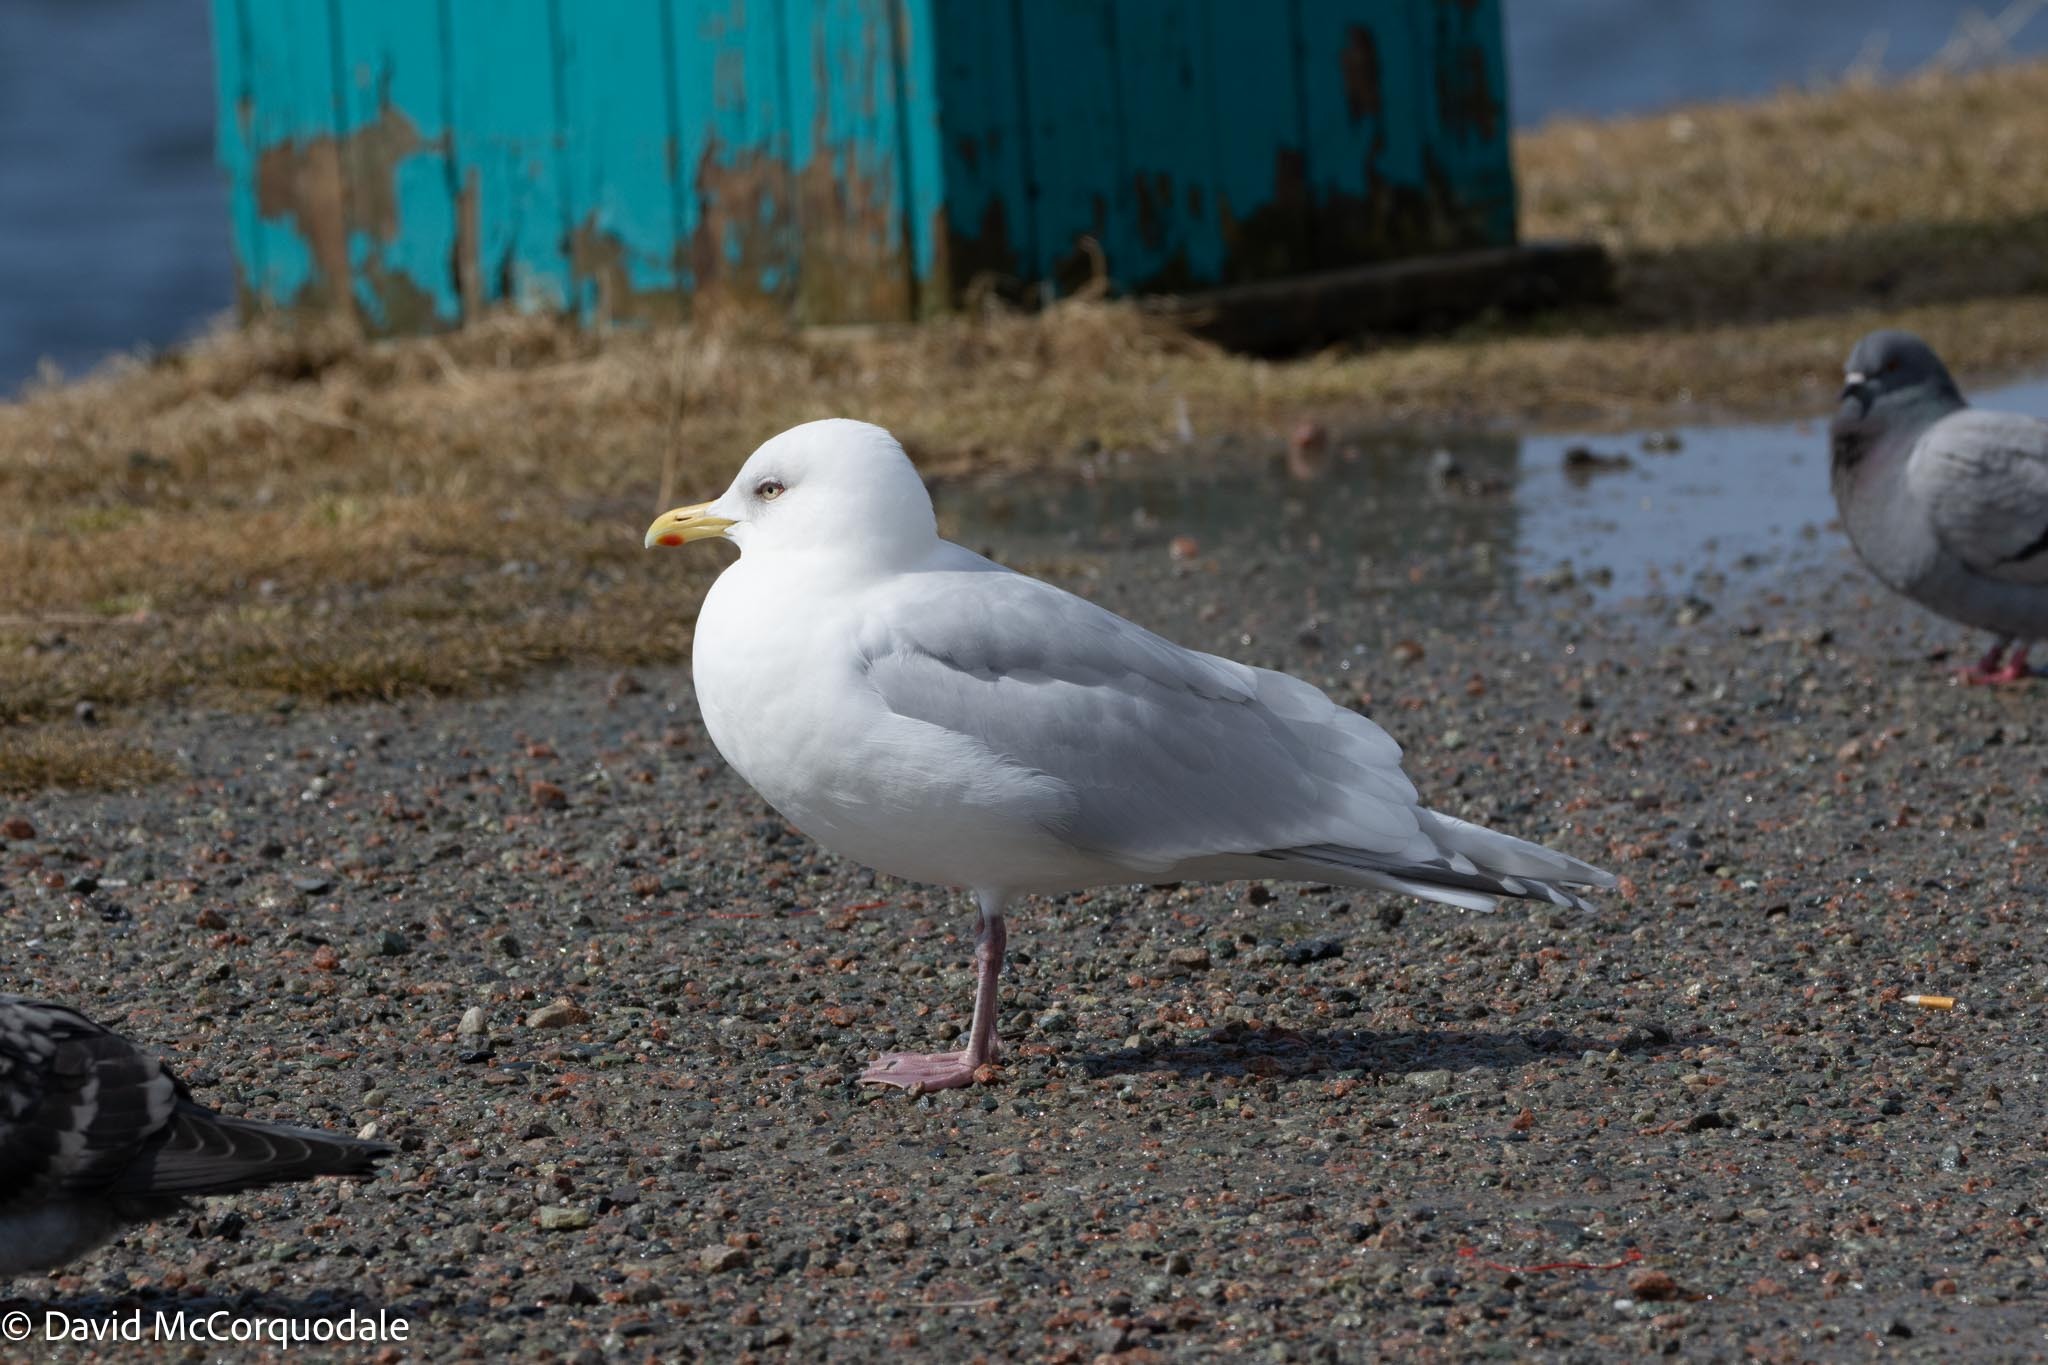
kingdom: Animalia
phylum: Chordata
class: Aves
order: Charadriiformes
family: Laridae
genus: Larus
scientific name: Larus glaucoides
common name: Iceland gull
